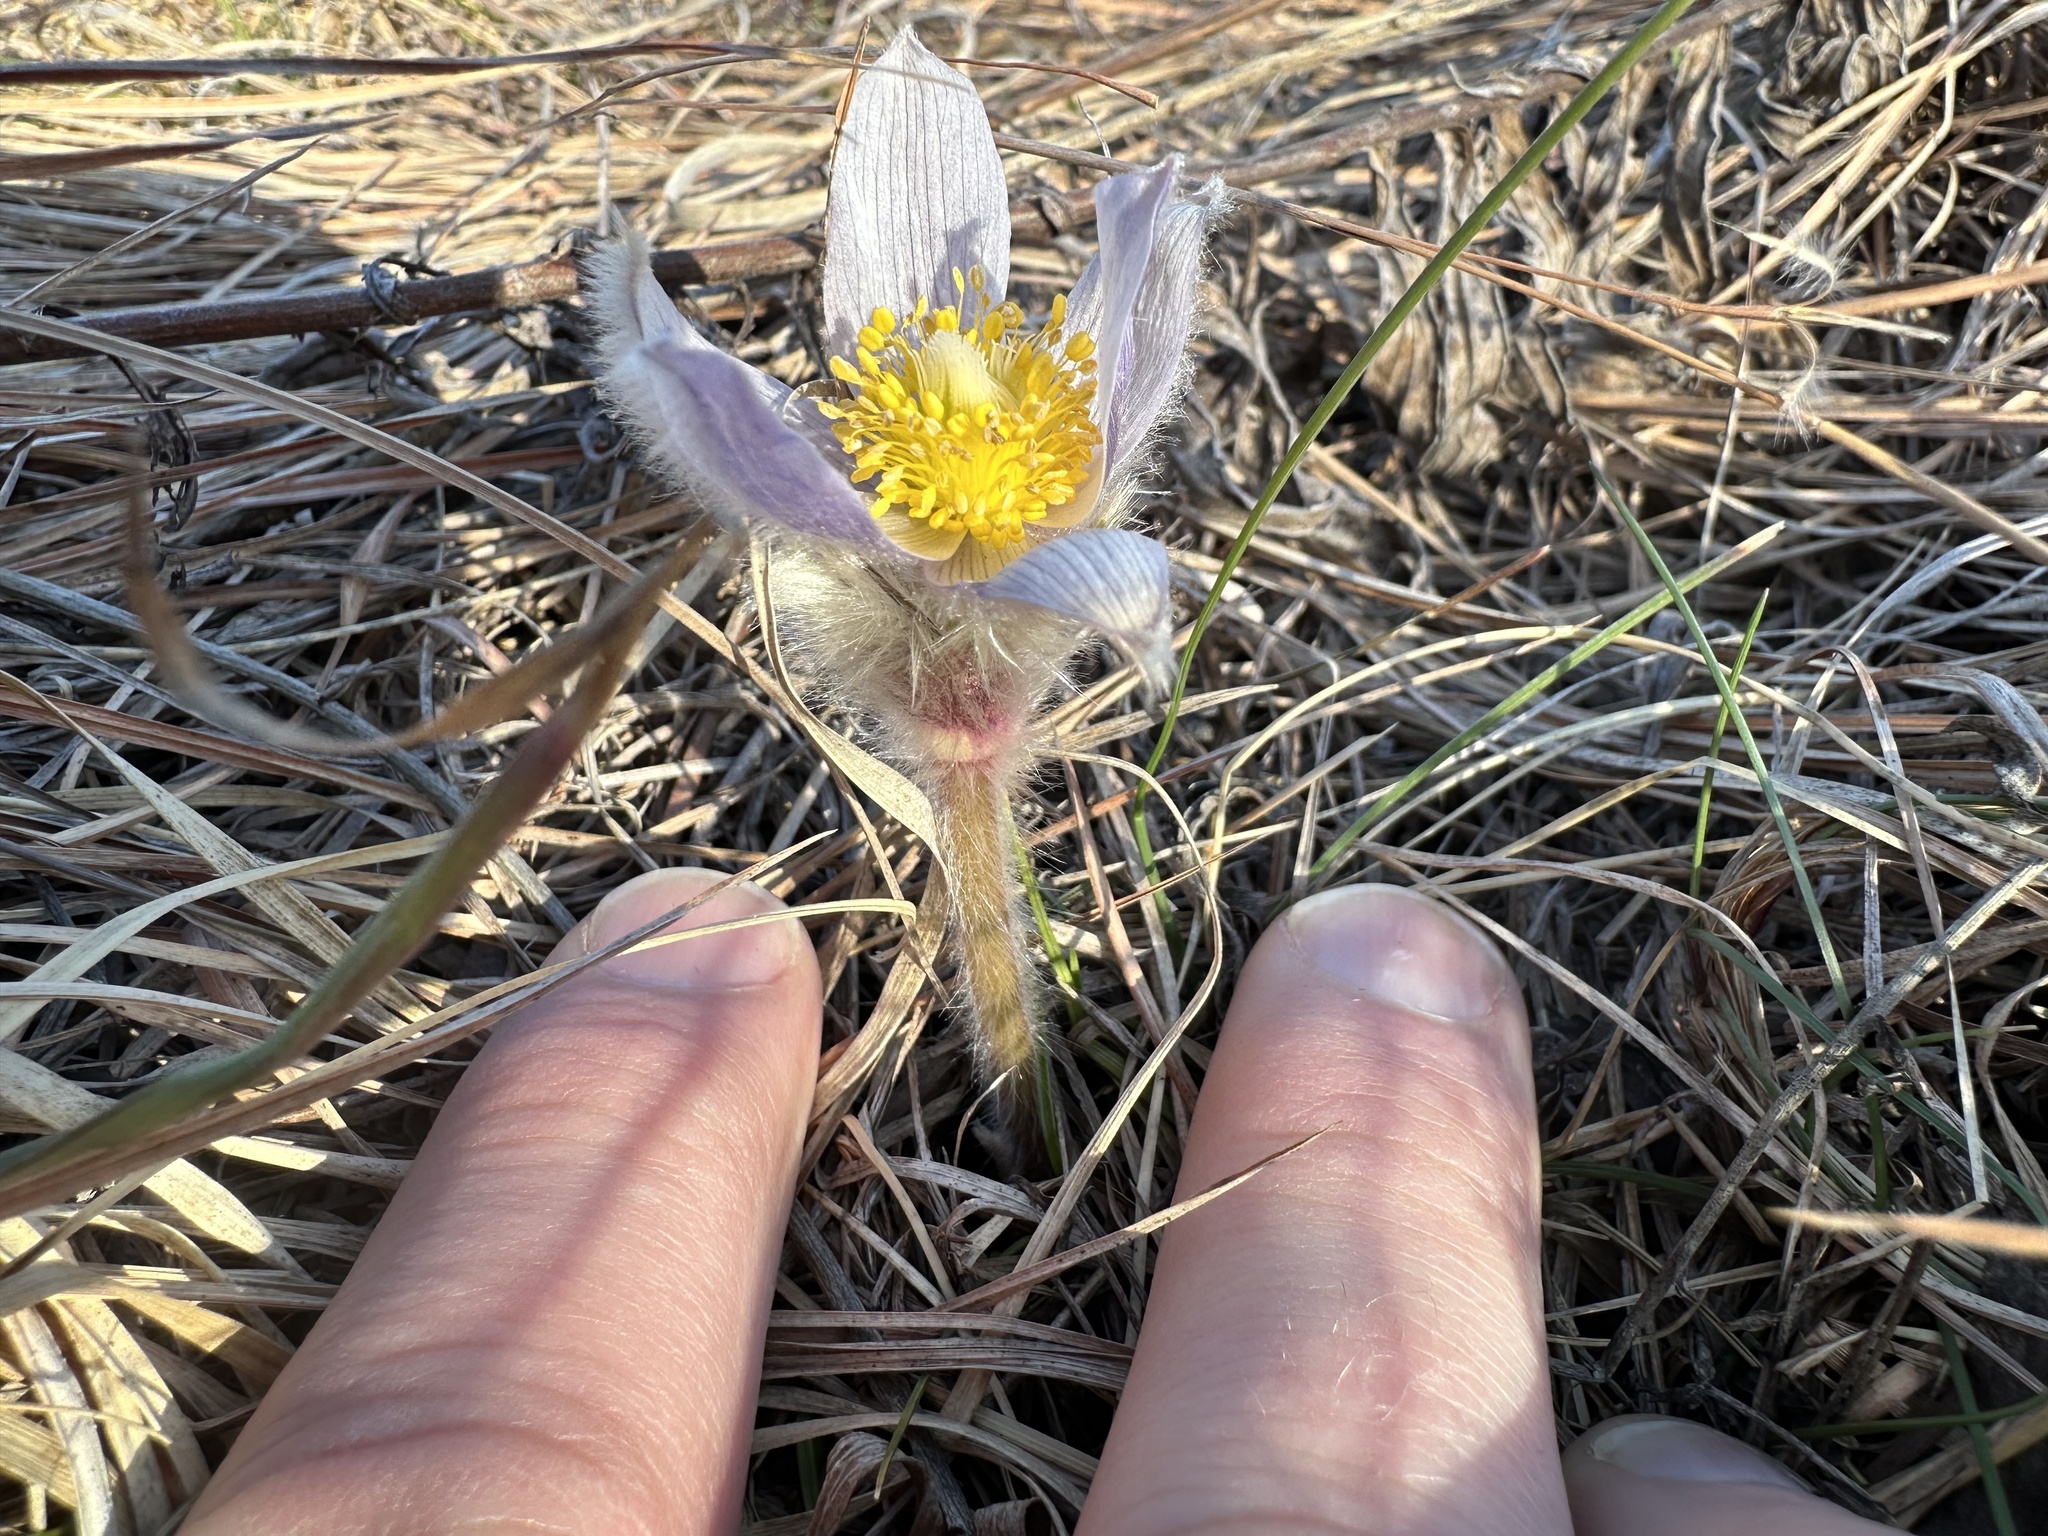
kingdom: Plantae
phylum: Tracheophyta
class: Magnoliopsida
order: Ranunculales
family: Ranunculaceae
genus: Pulsatilla
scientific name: Pulsatilla nuttalliana
